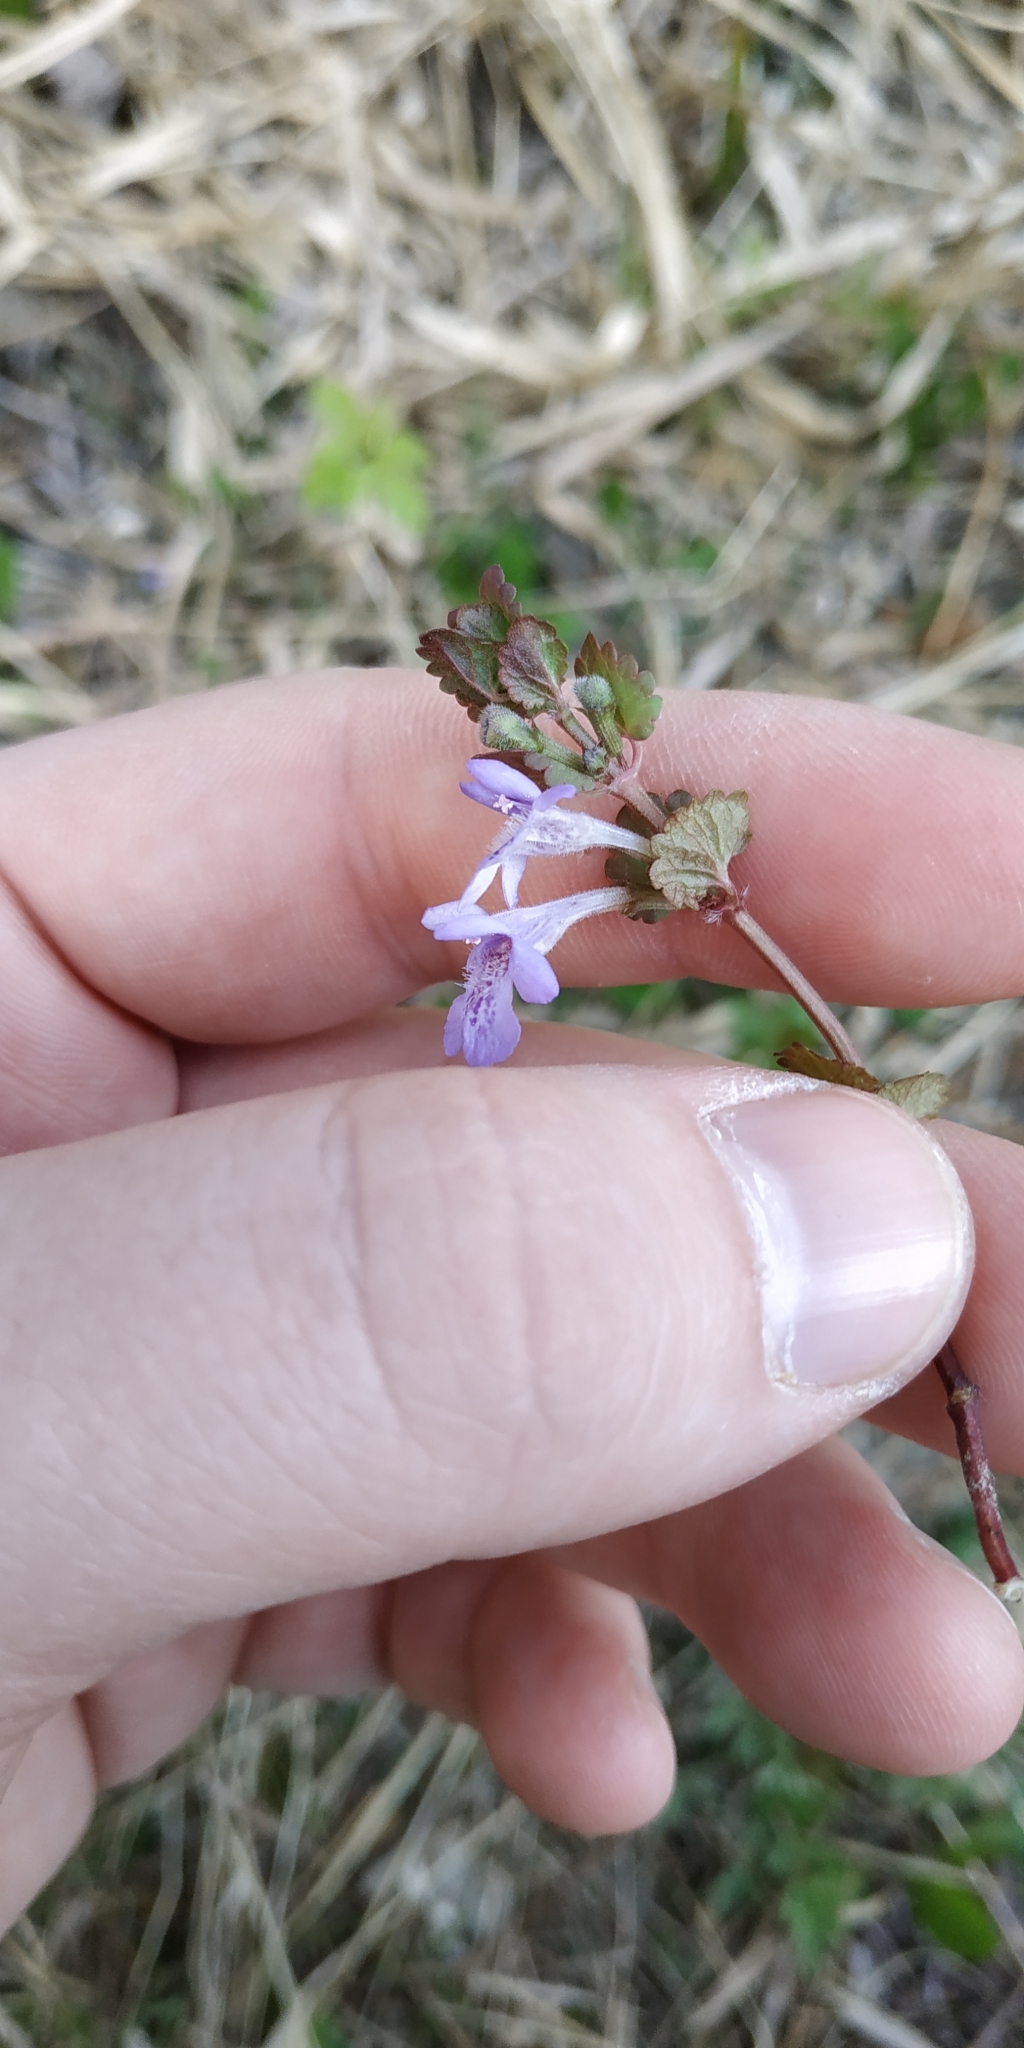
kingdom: Plantae
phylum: Tracheophyta
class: Magnoliopsida
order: Lamiales
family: Lamiaceae
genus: Glechoma
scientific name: Glechoma hederacea
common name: Ground ivy
